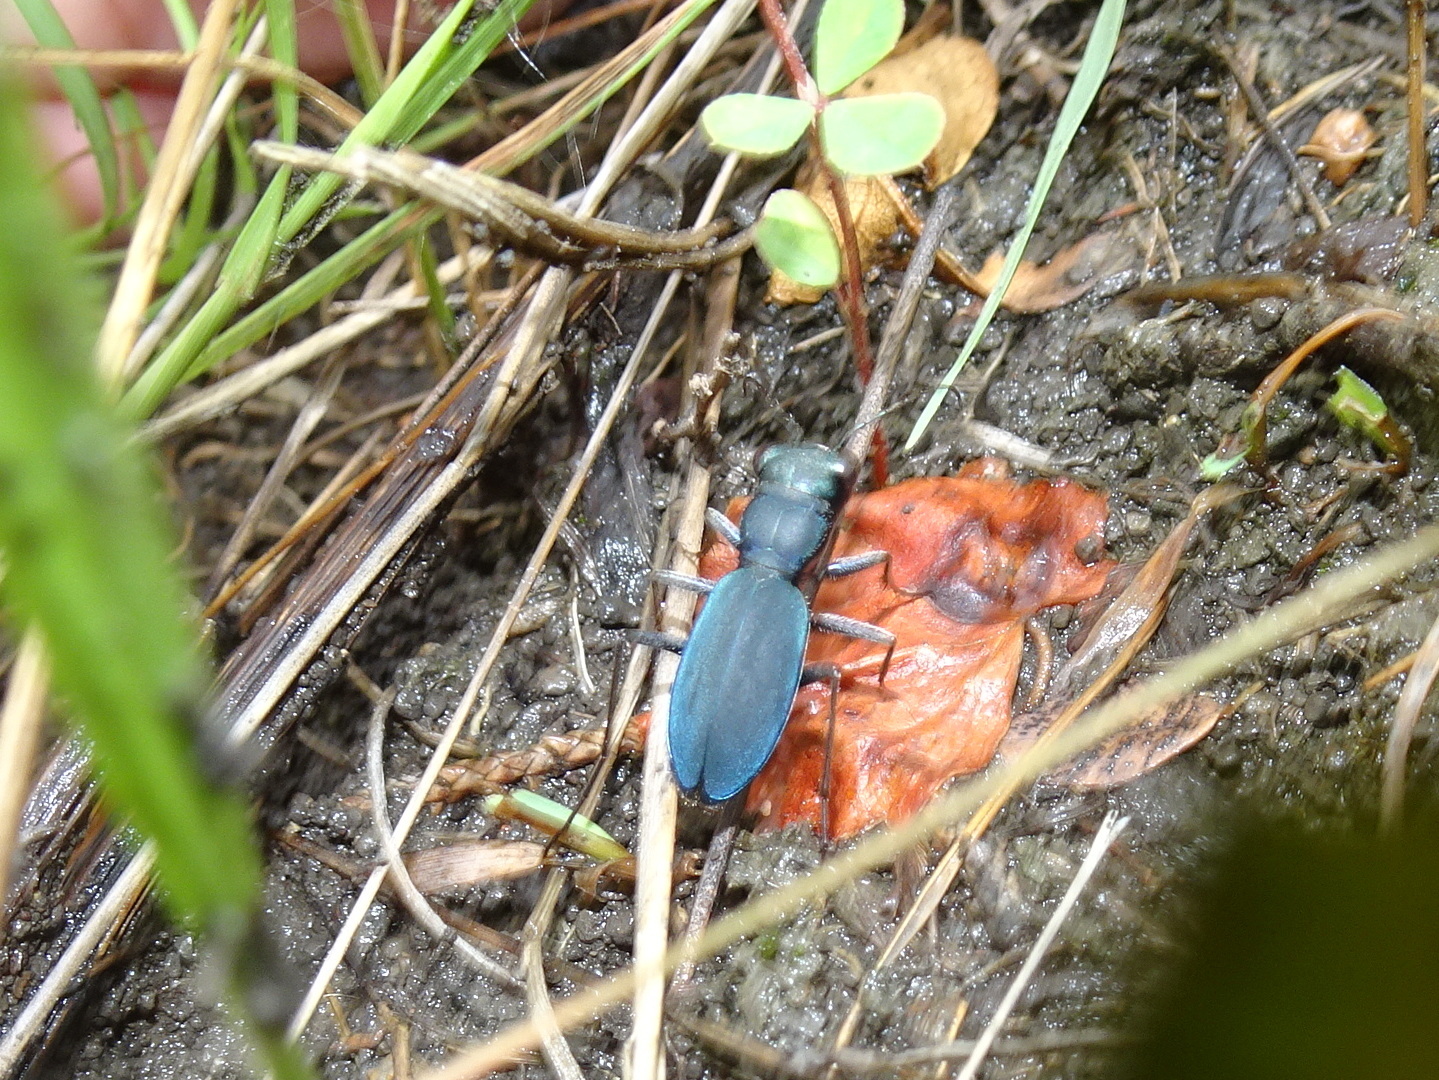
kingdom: Animalia
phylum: Arthropoda
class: Insecta
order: Coleoptera
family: Carabidae
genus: Dromochorus
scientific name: Dromochorus pruininus
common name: Frosted dromo tiger beetle
